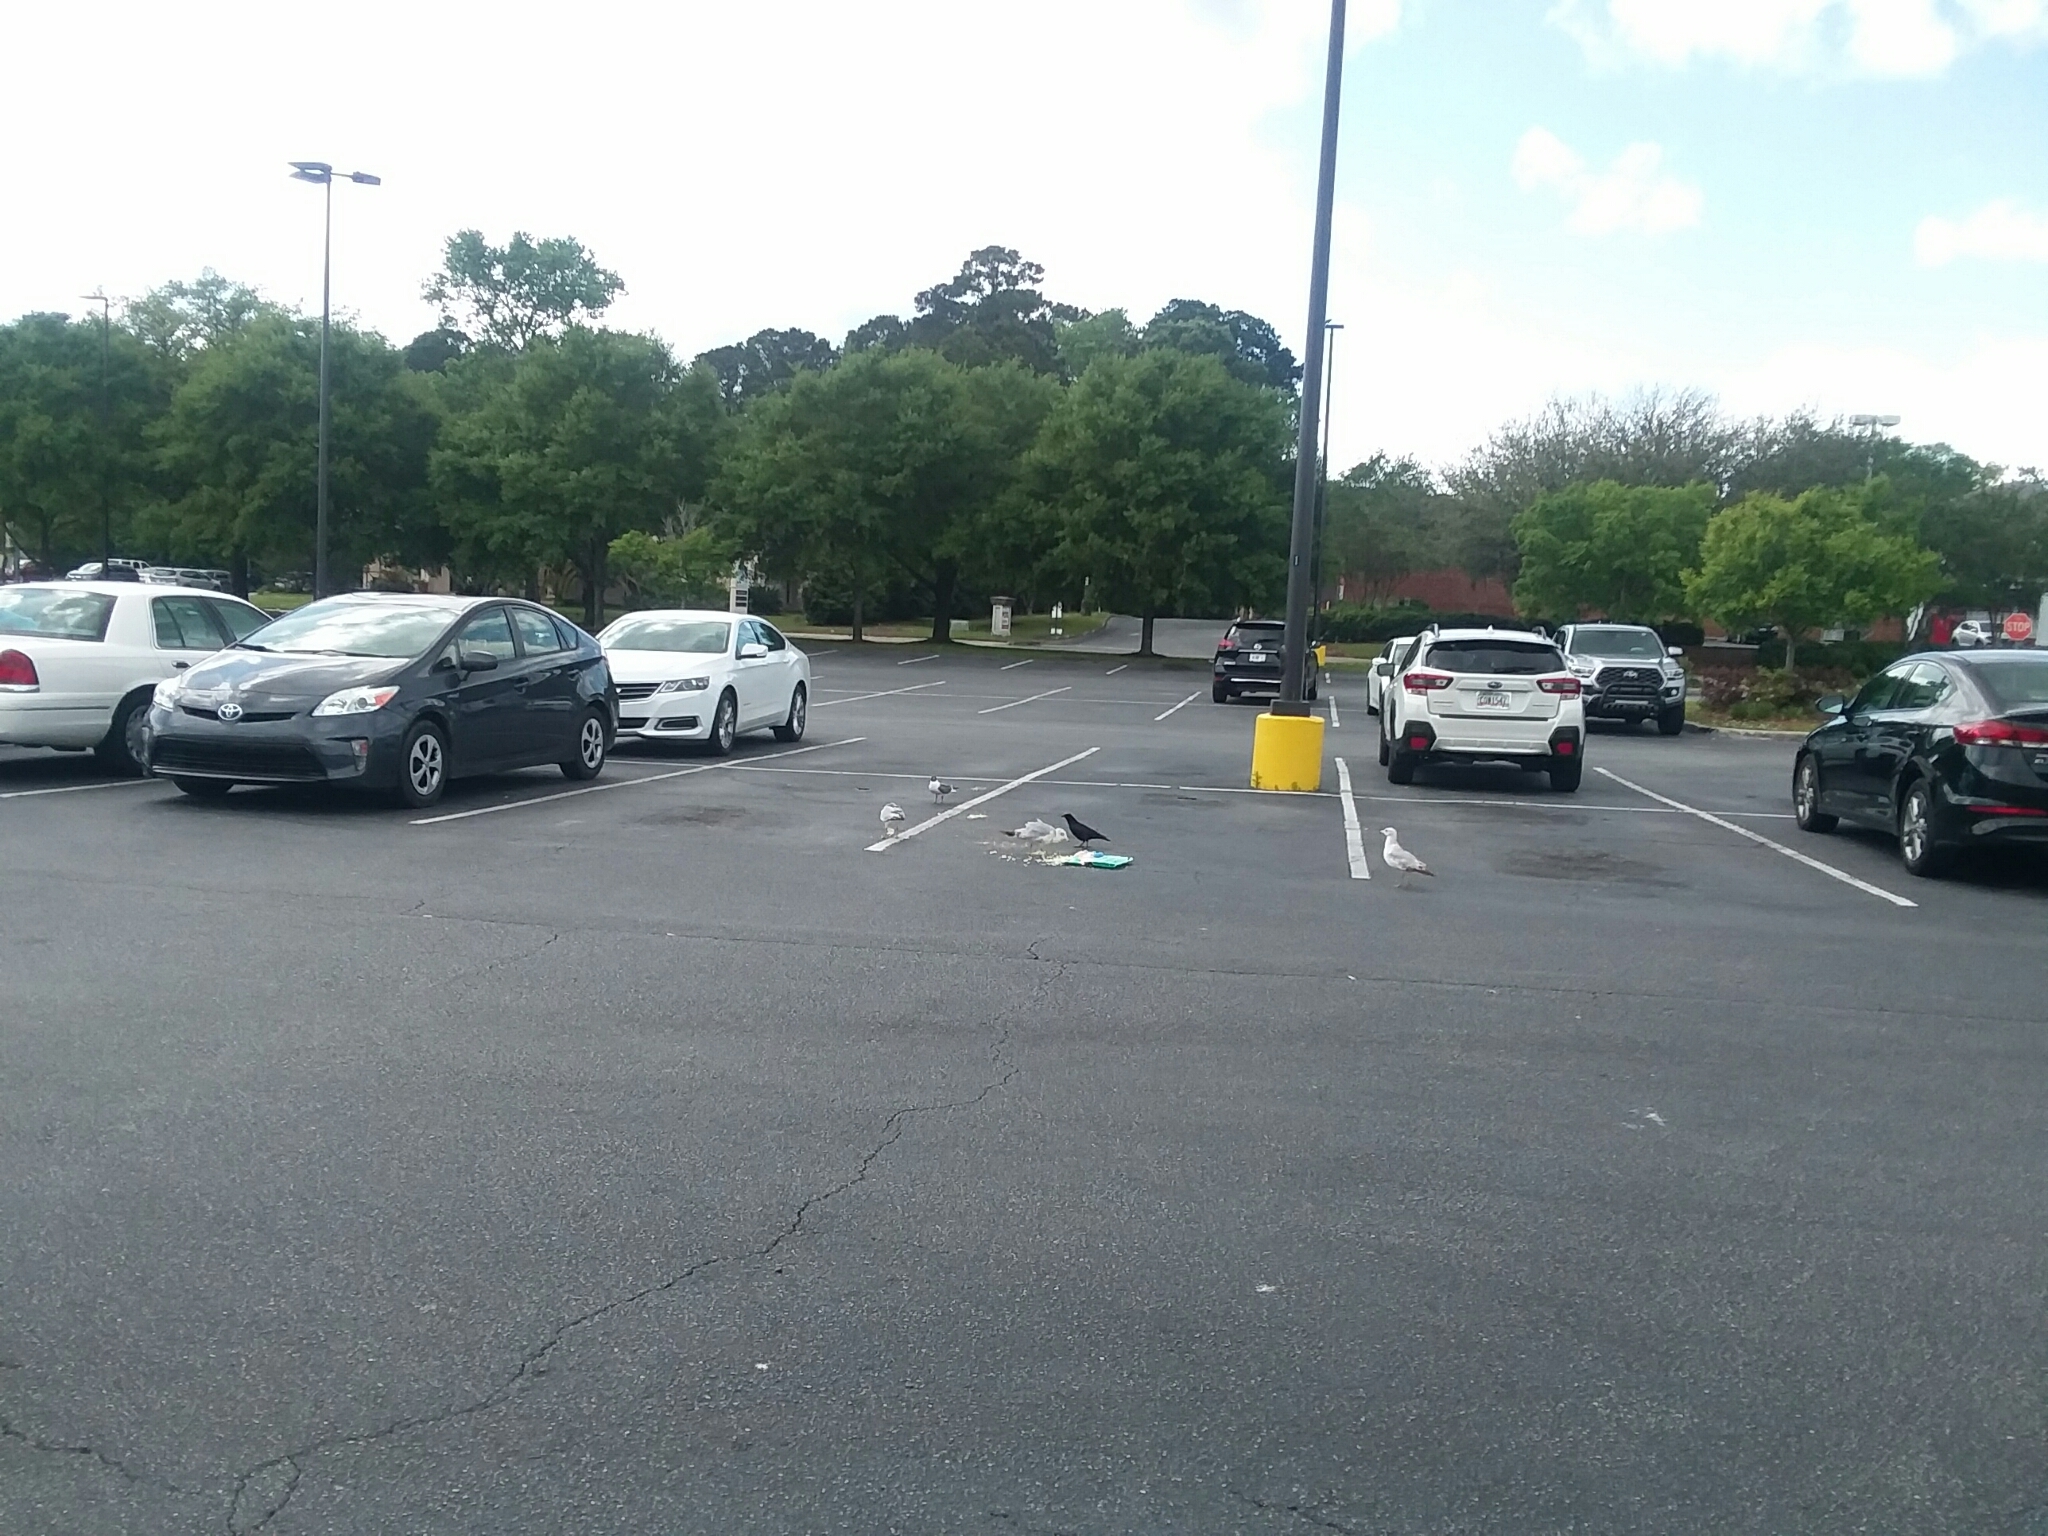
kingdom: Animalia
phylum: Chordata
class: Aves
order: Charadriiformes
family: Laridae
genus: Larus
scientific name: Larus delawarensis
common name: Ring-billed gull
